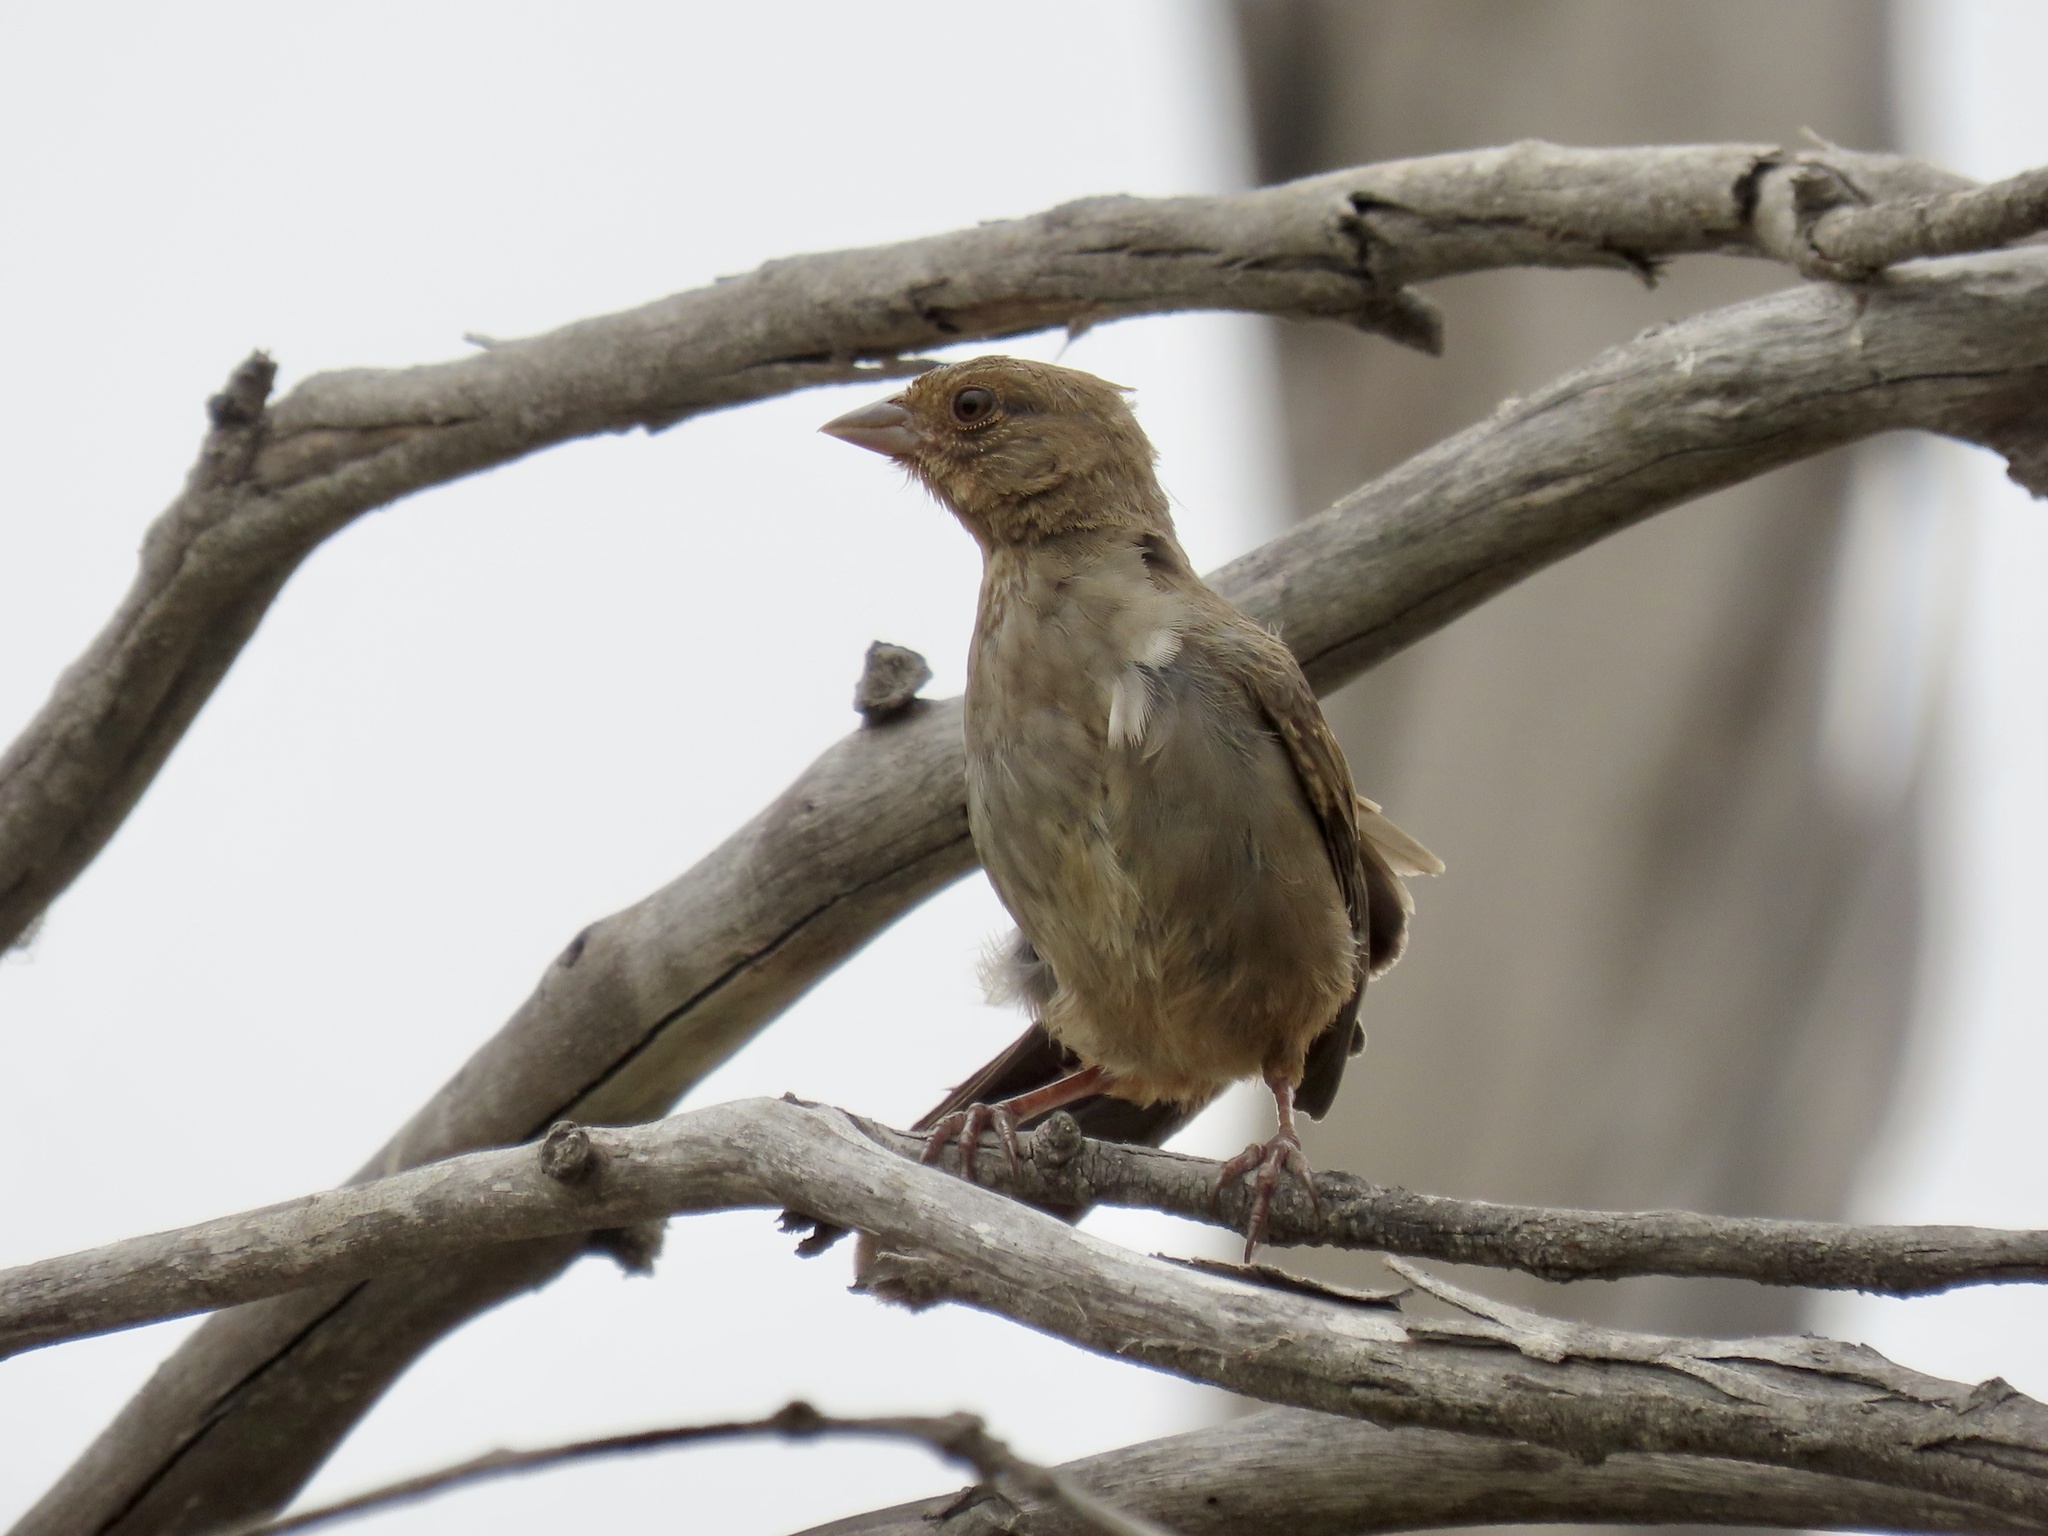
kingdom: Animalia
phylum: Chordata
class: Aves
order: Passeriformes
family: Passerellidae
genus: Melozone
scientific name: Melozone crissalis
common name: California towhee
